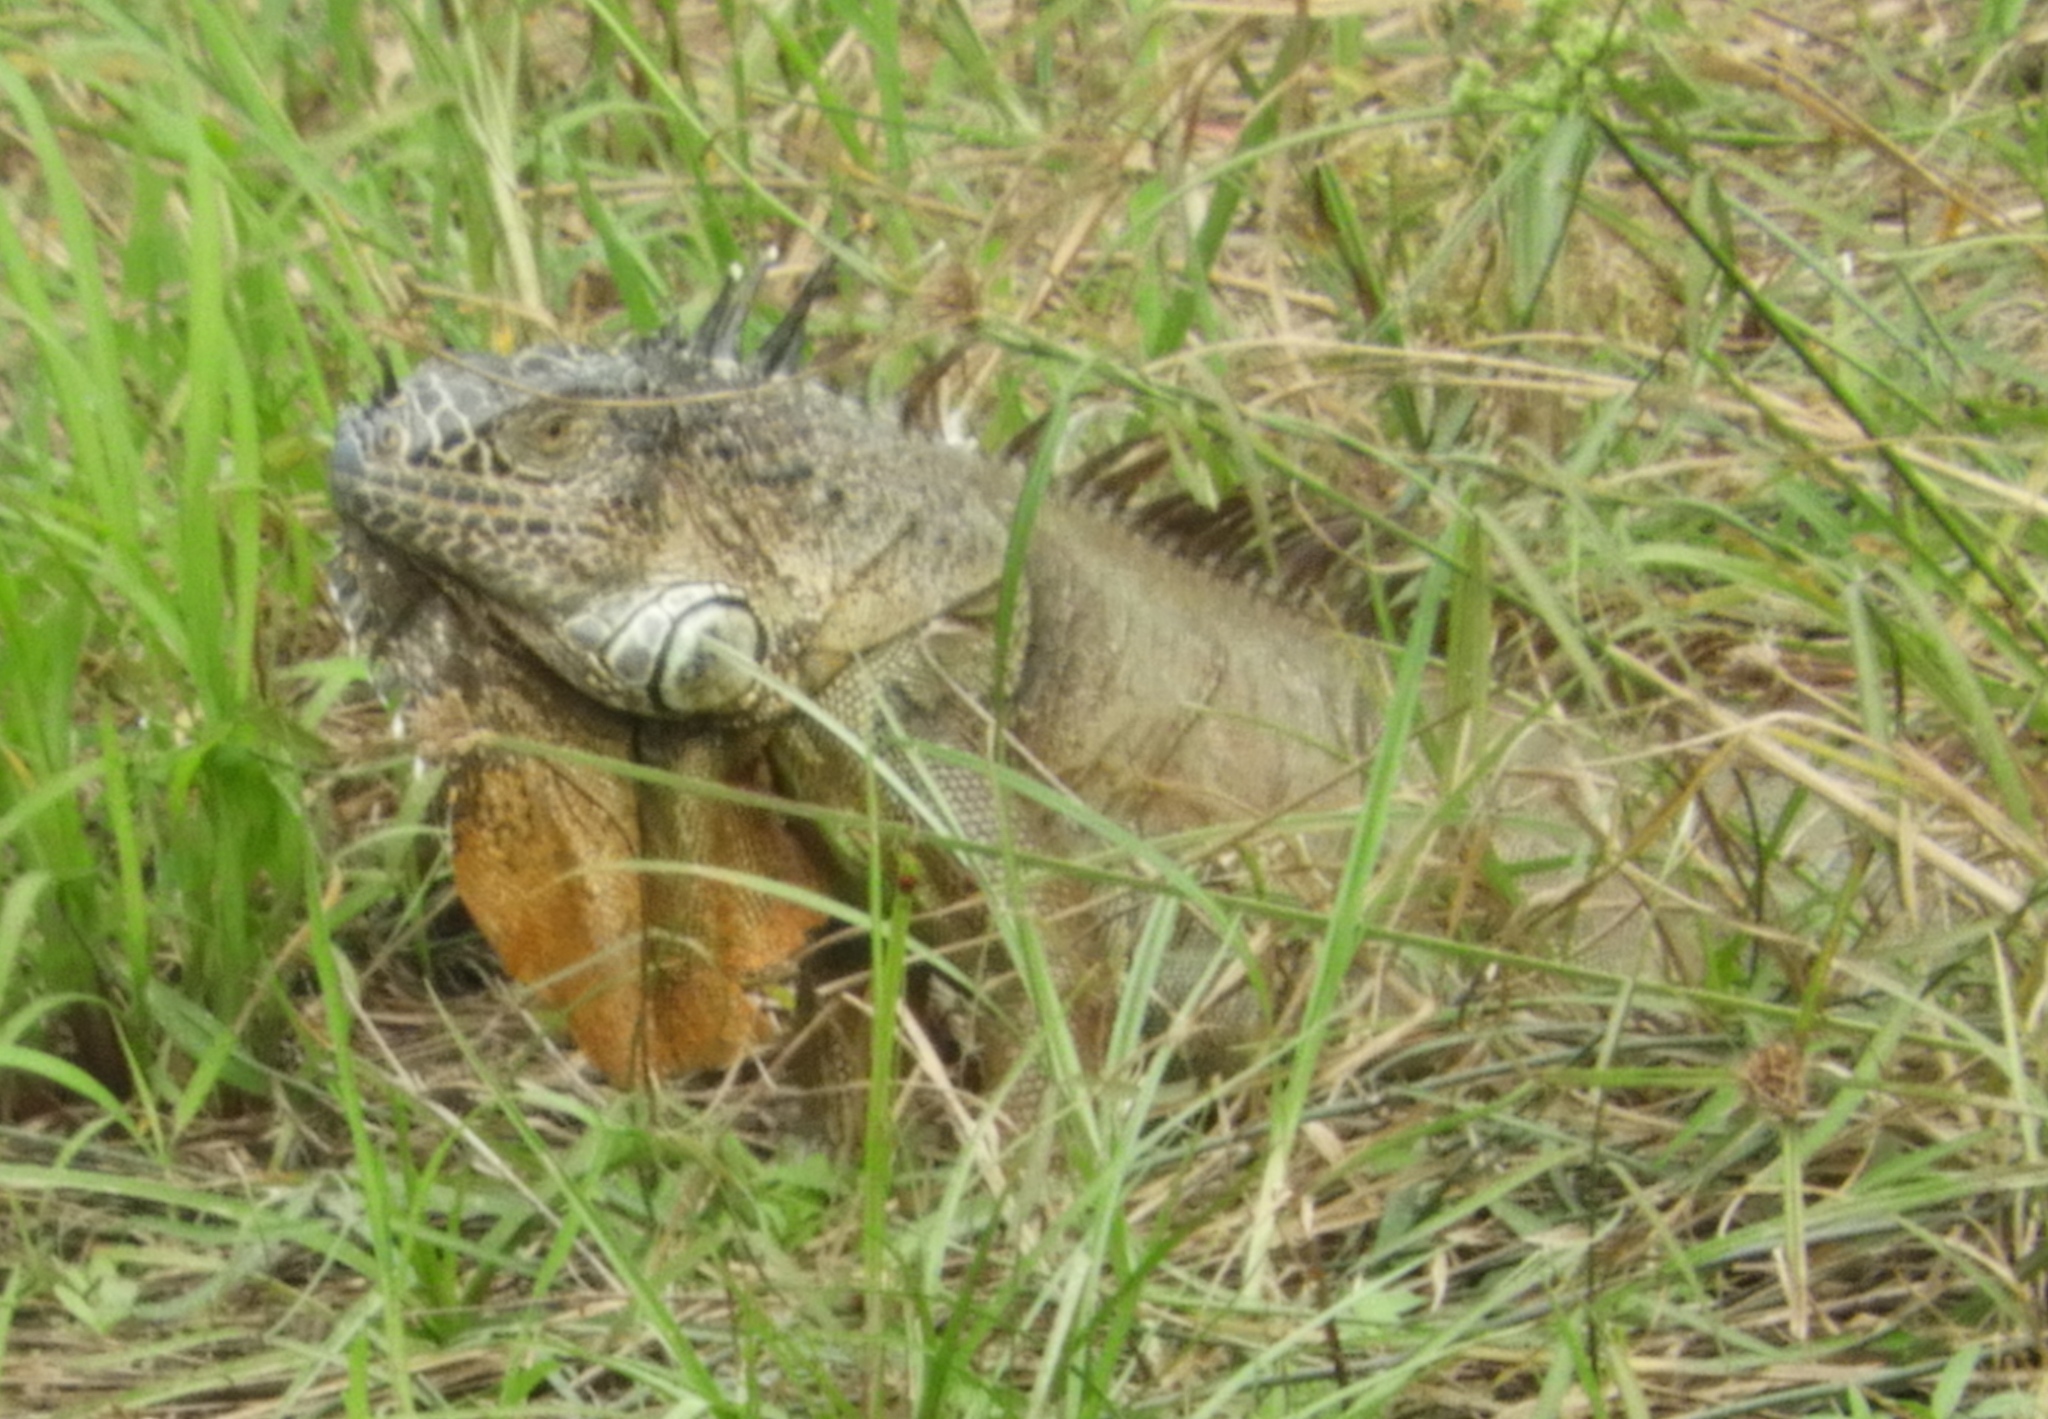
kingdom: Animalia
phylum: Chordata
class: Squamata
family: Iguanidae
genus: Iguana
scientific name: Iguana iguana
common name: Green iguana
